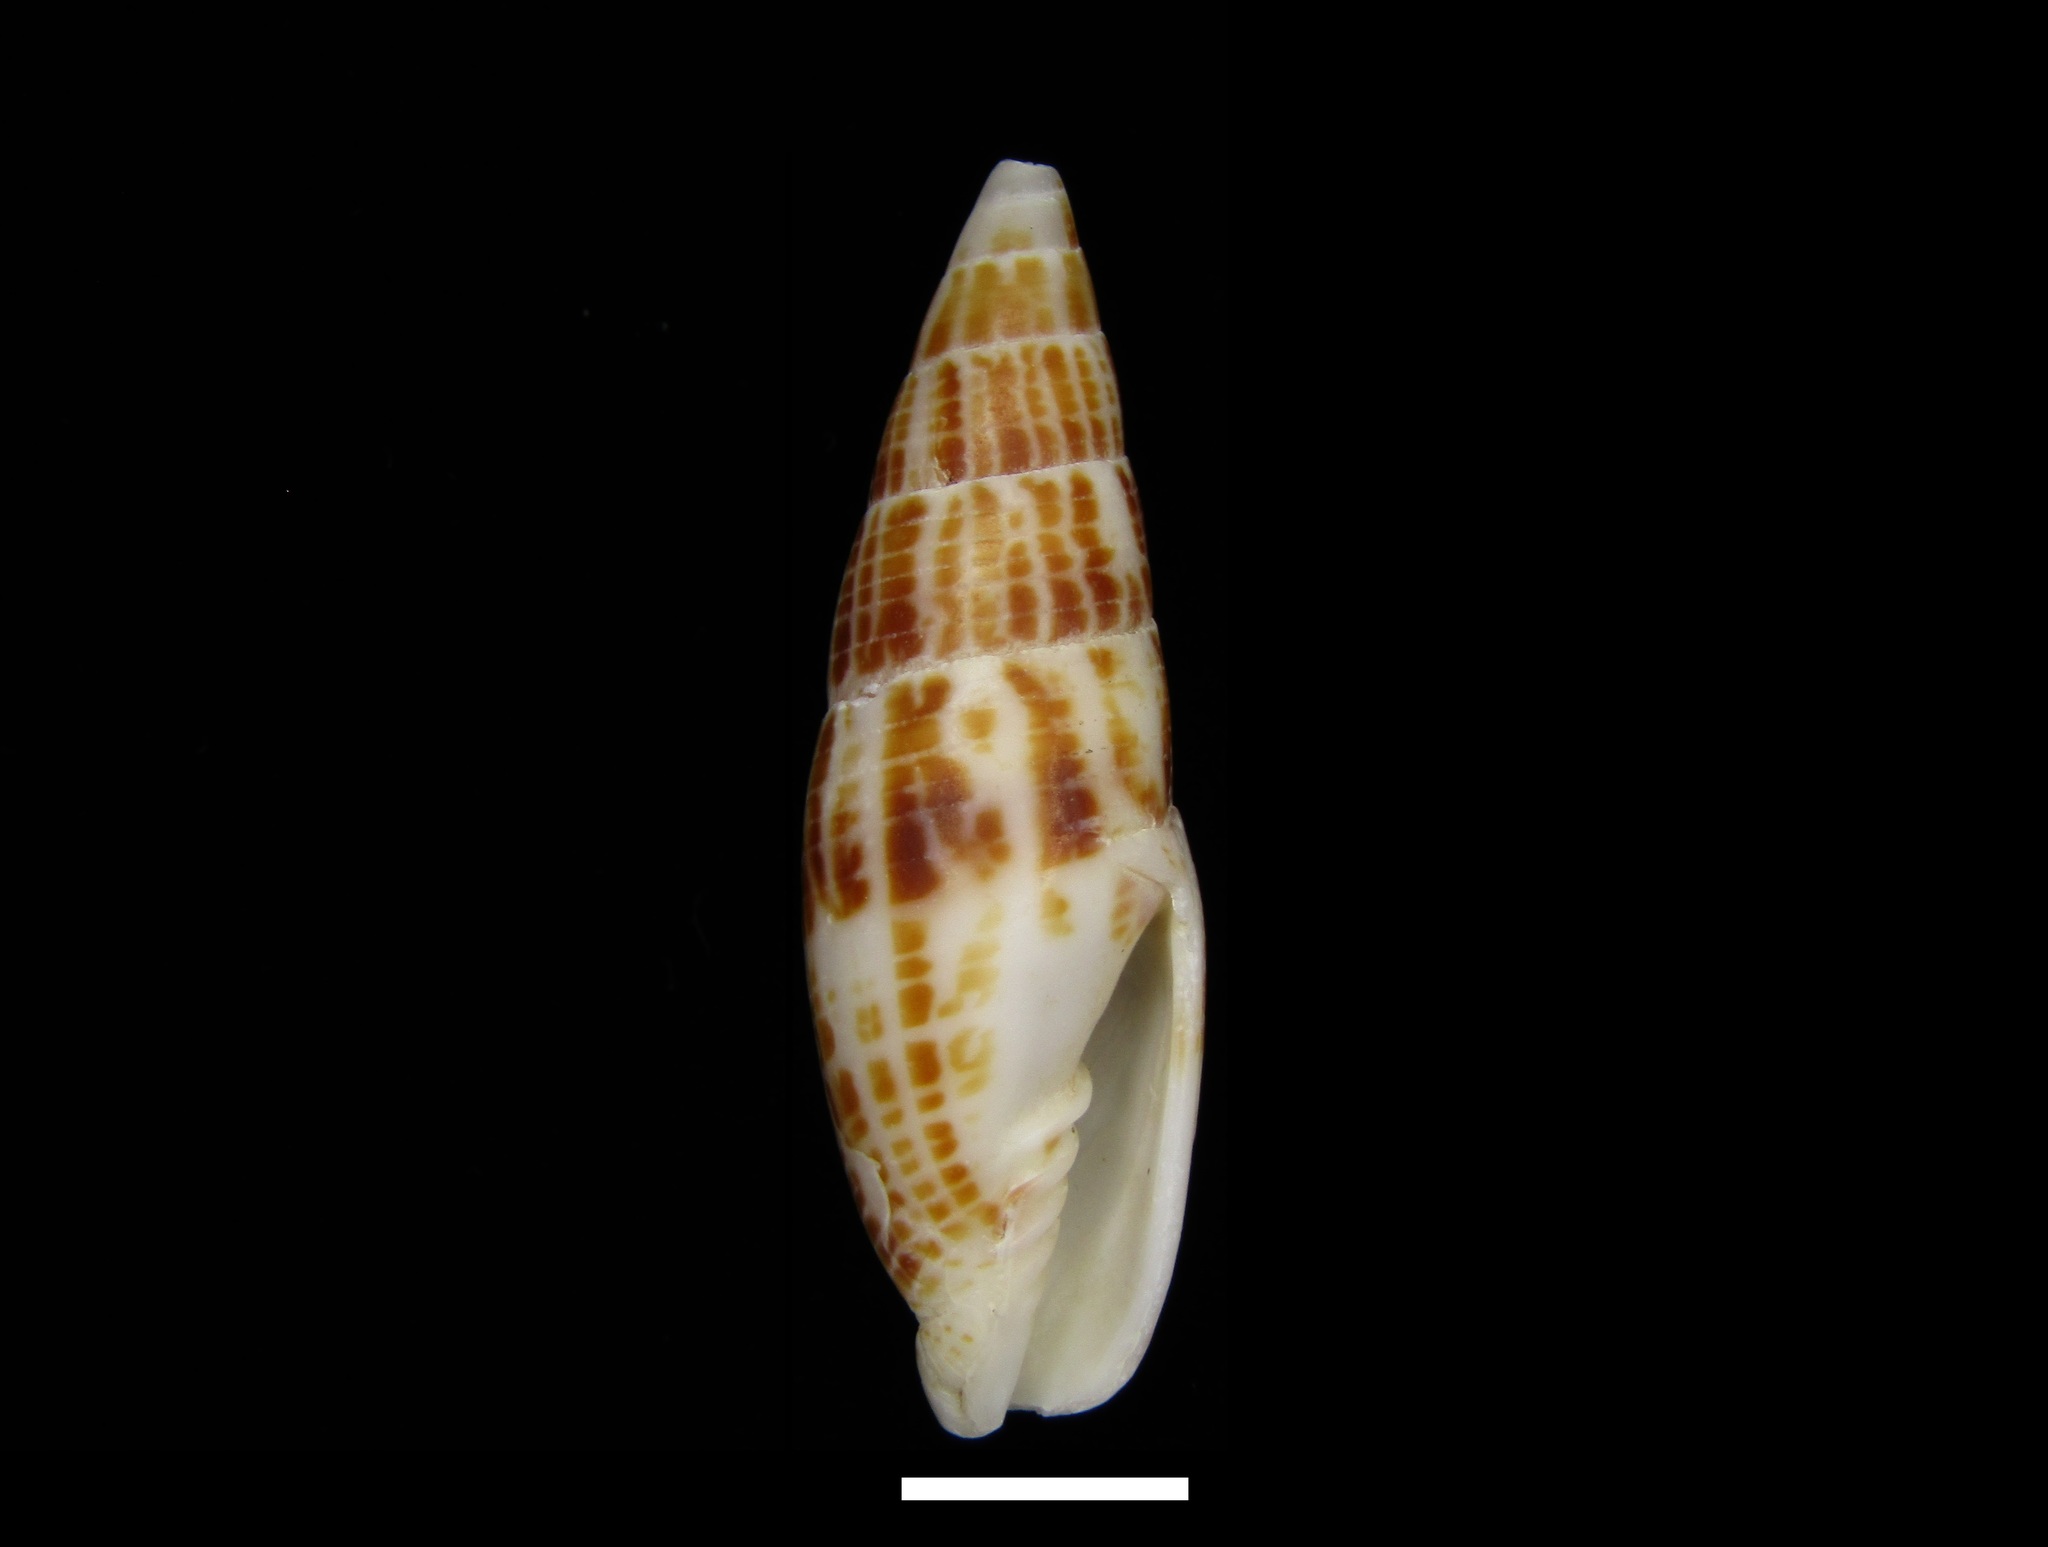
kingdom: Animalia
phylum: Mollusca
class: Gastropoda
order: Neogastropoda
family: Mitridae
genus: Nebularia
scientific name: Nebularia inquinata
